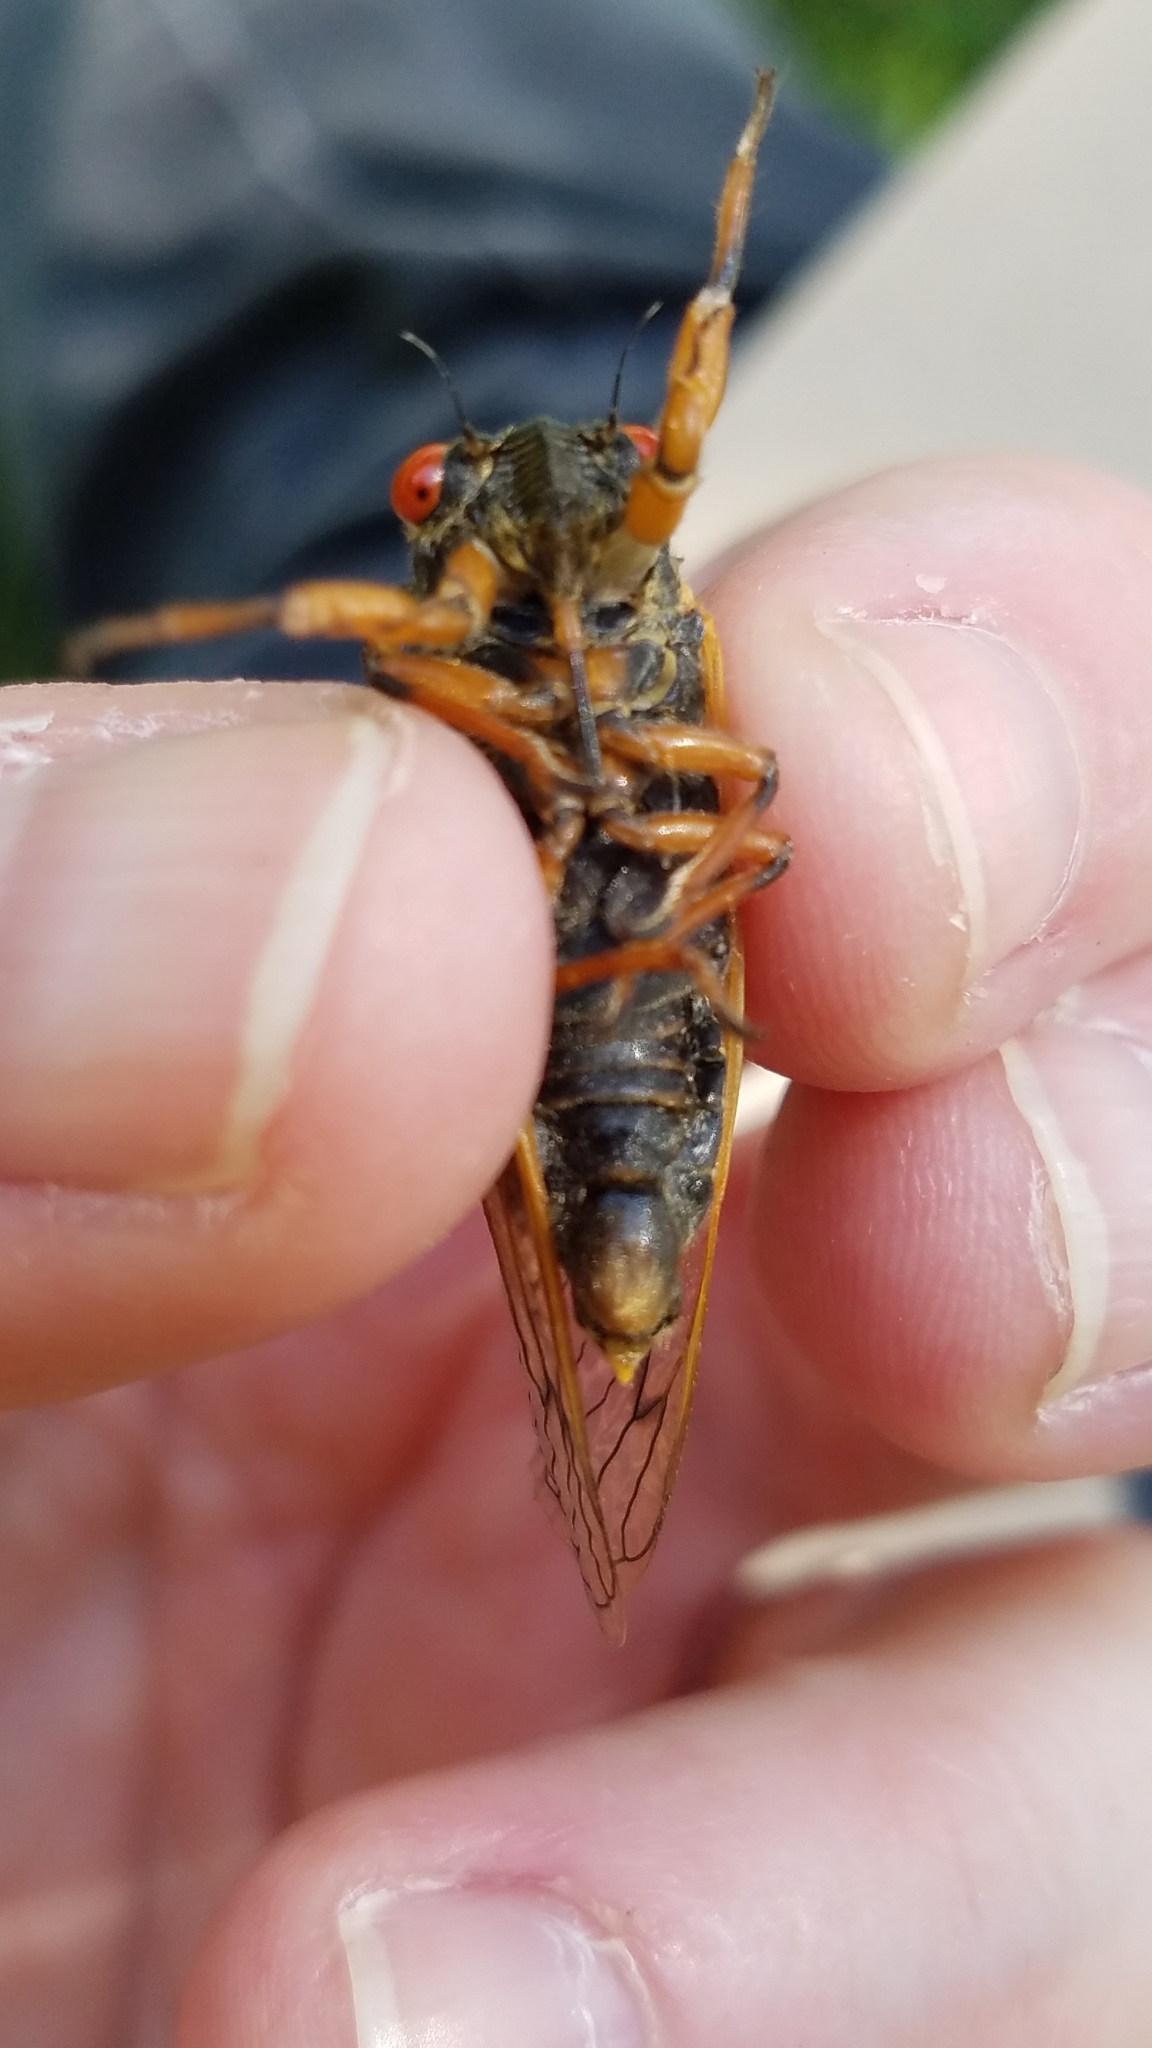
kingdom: Animalia
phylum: Arthropoda
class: Insecta
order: Hemiptera
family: Cicadidae
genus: Magicicada
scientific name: Magicicada septendecula
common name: Decula periodical cicada
